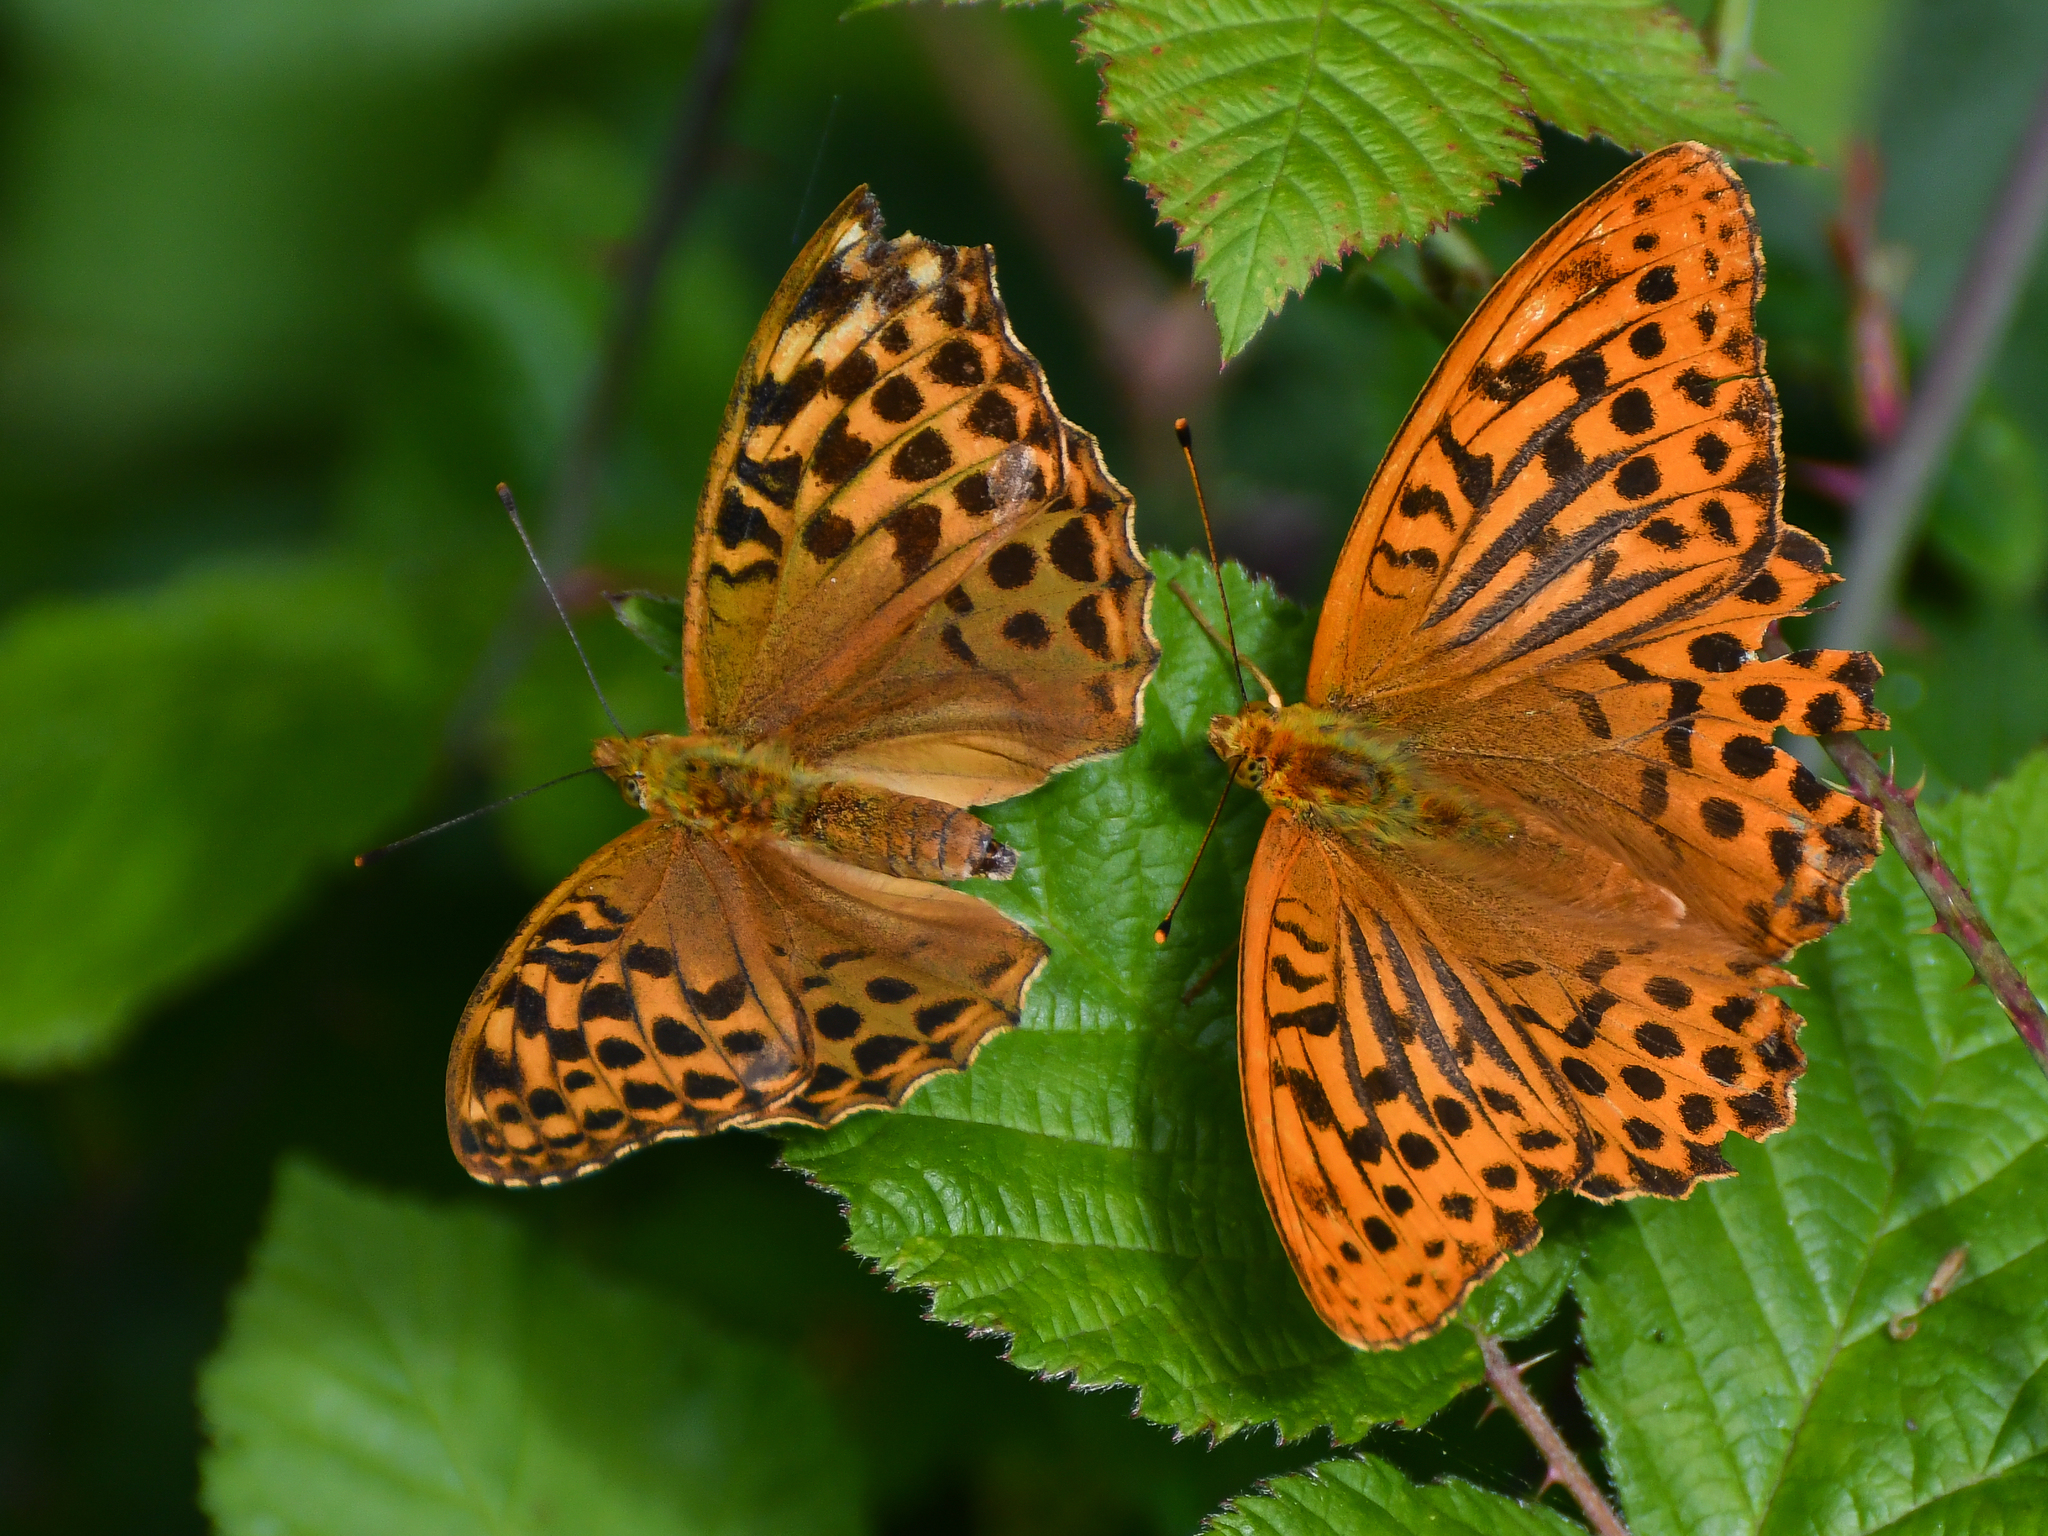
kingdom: Animalia
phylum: Arthropoda
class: Insecta
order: Lepidoptera
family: Nymphalidae
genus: Argynnis
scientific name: Argynnis paphia
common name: Silver-washed fritillary
